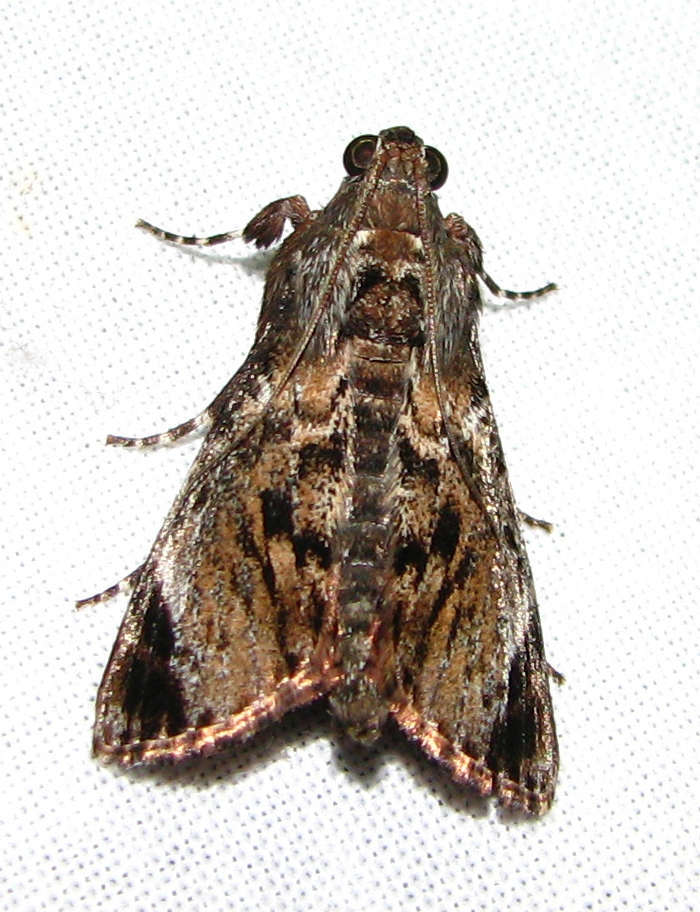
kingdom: Animalia
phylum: Arthropoda
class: Insecta
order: Lepidoptera
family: Pyralidae
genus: Salma
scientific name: Salma pyrastis
